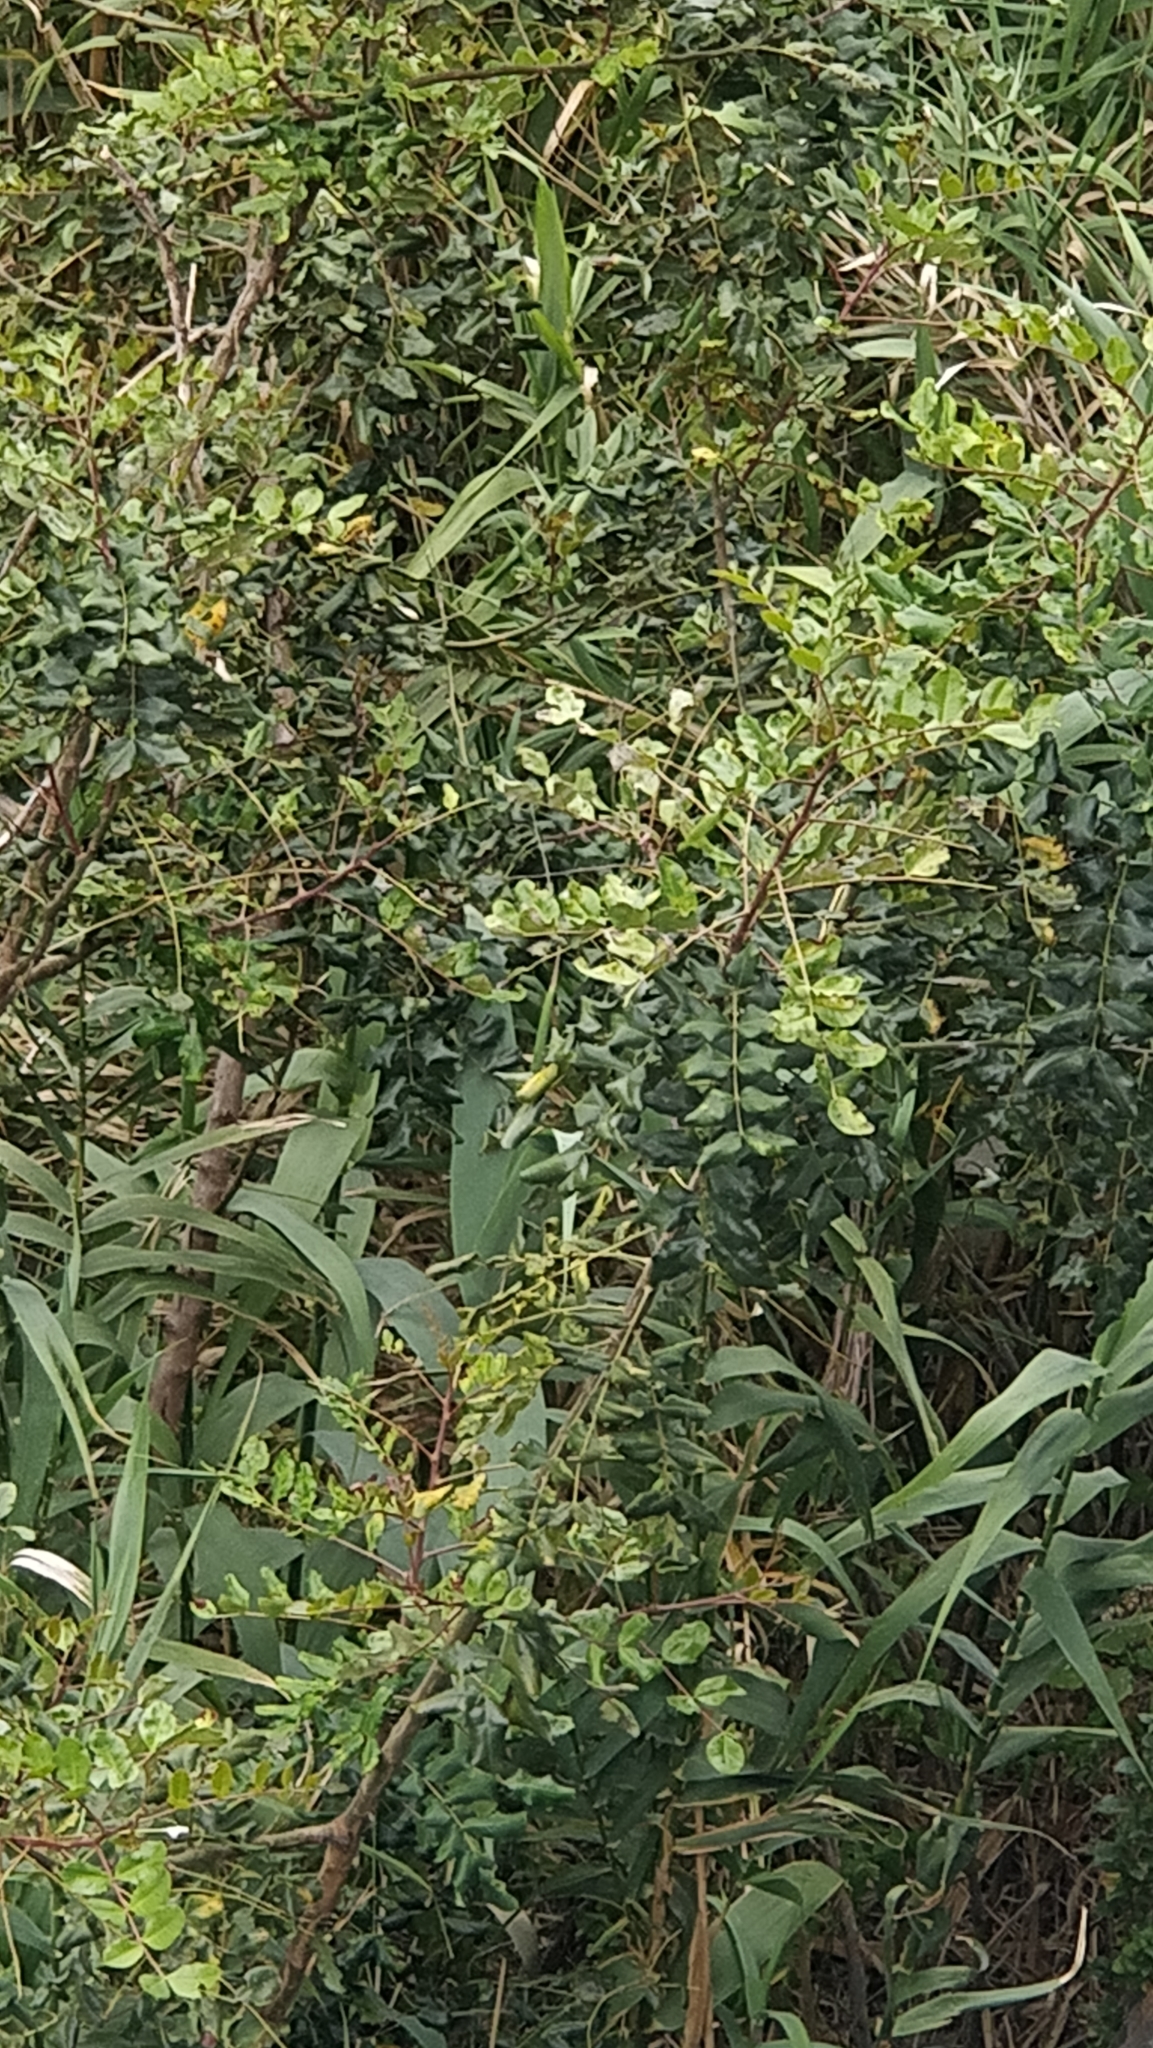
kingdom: Plantae
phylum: Tracheophyta
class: Magnoliopsida
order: Fabales
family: Fabaceae
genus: Ceratonia
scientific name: Ceratonia siliqua
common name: Carob
